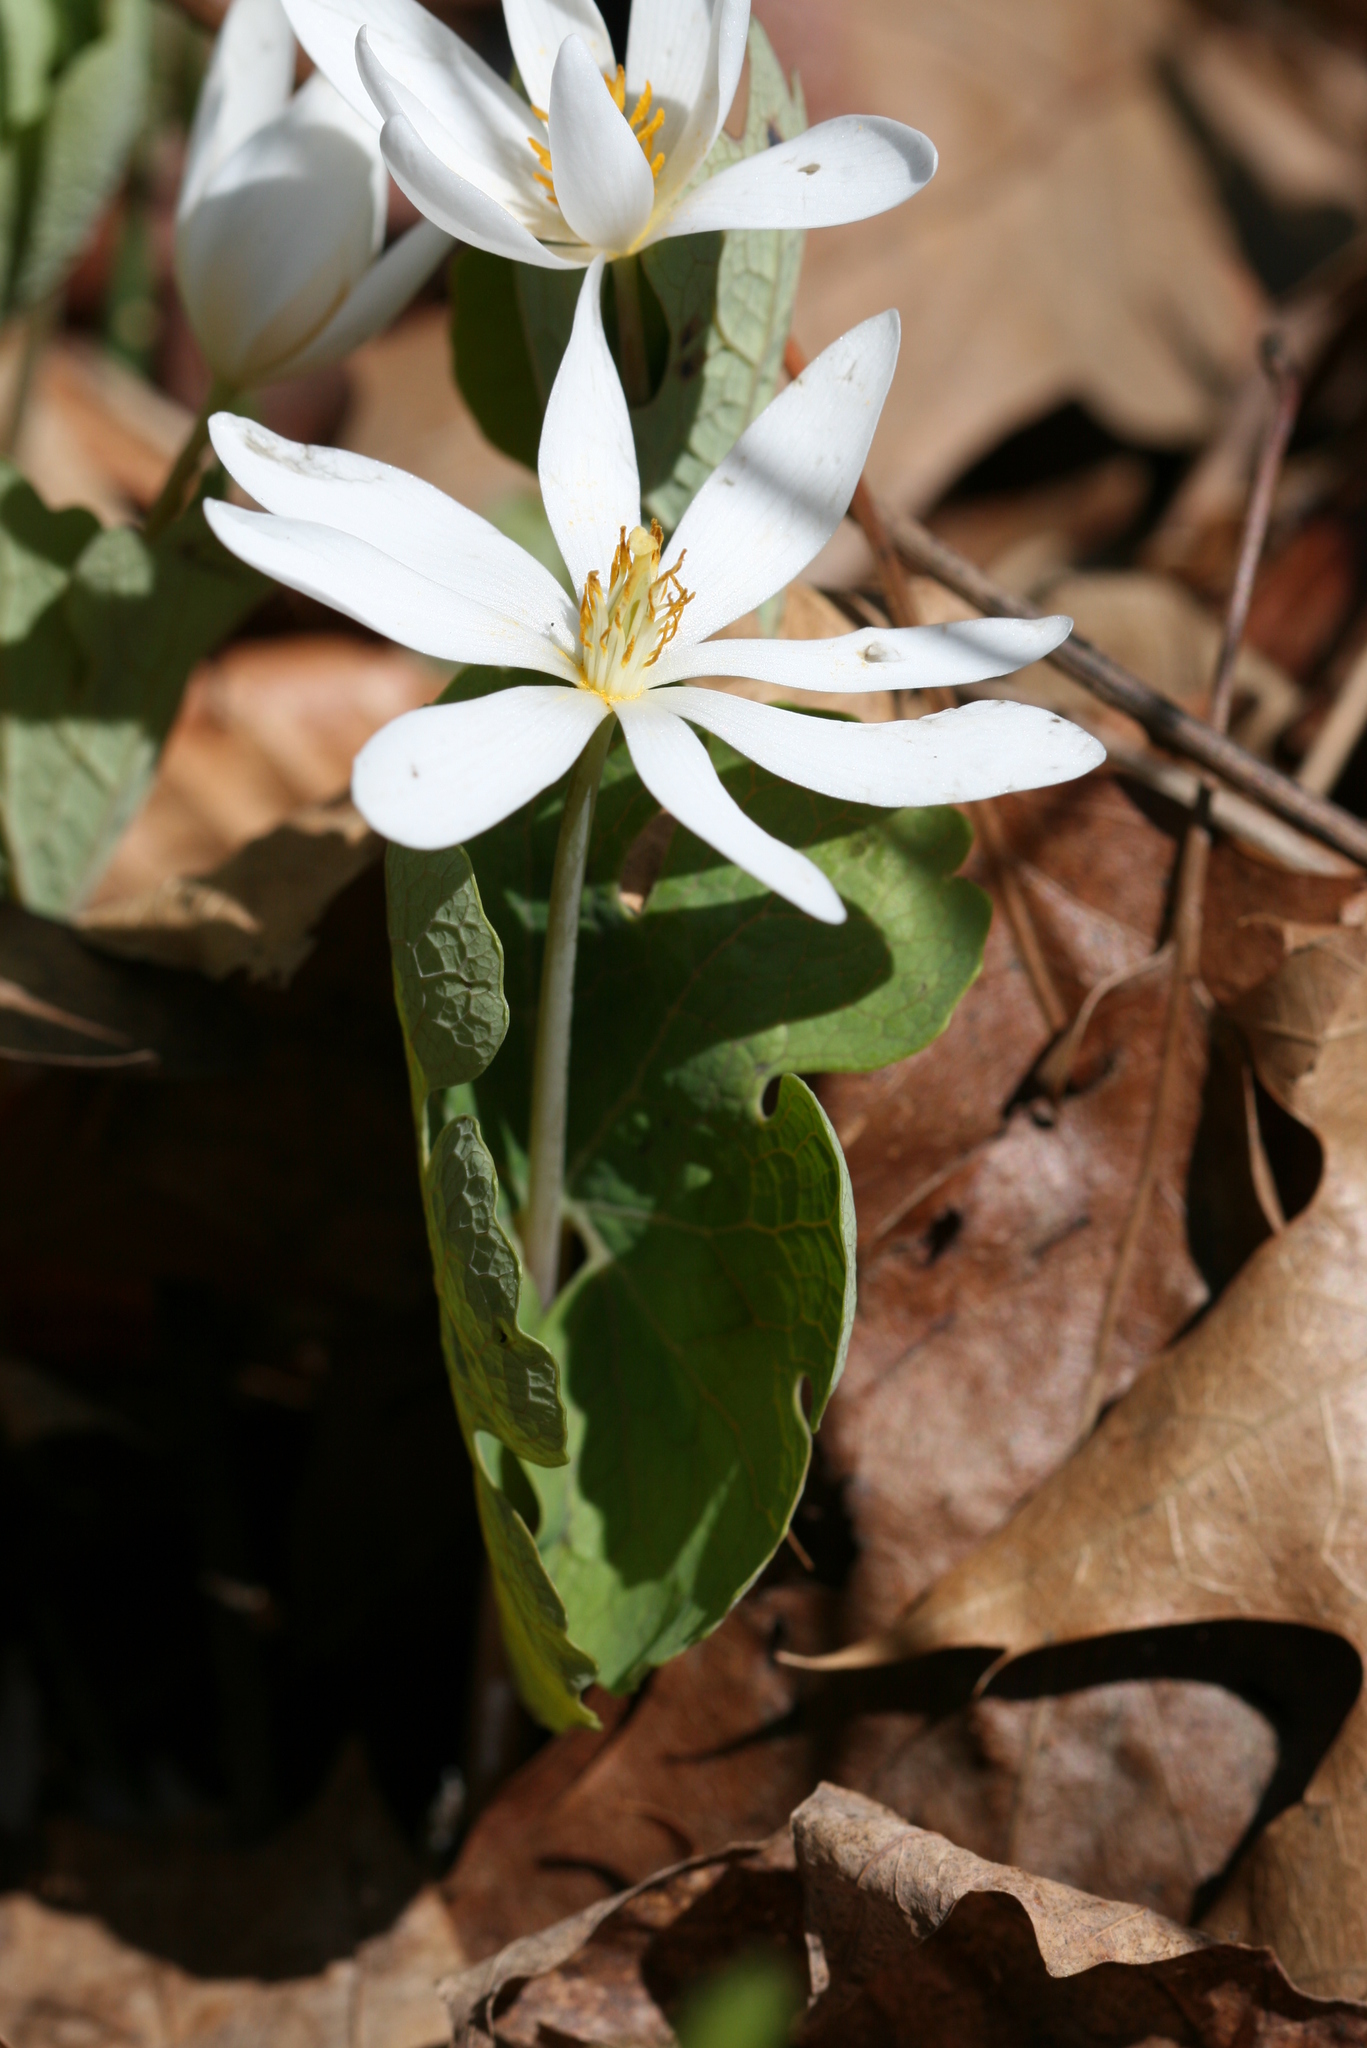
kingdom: Plantae
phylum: Tracheophyta
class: Magnoliopsida
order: Ranunculales
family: Papaveraceae
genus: Sanguinaria
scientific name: Sanguinaria canadensis
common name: Bloodroot
